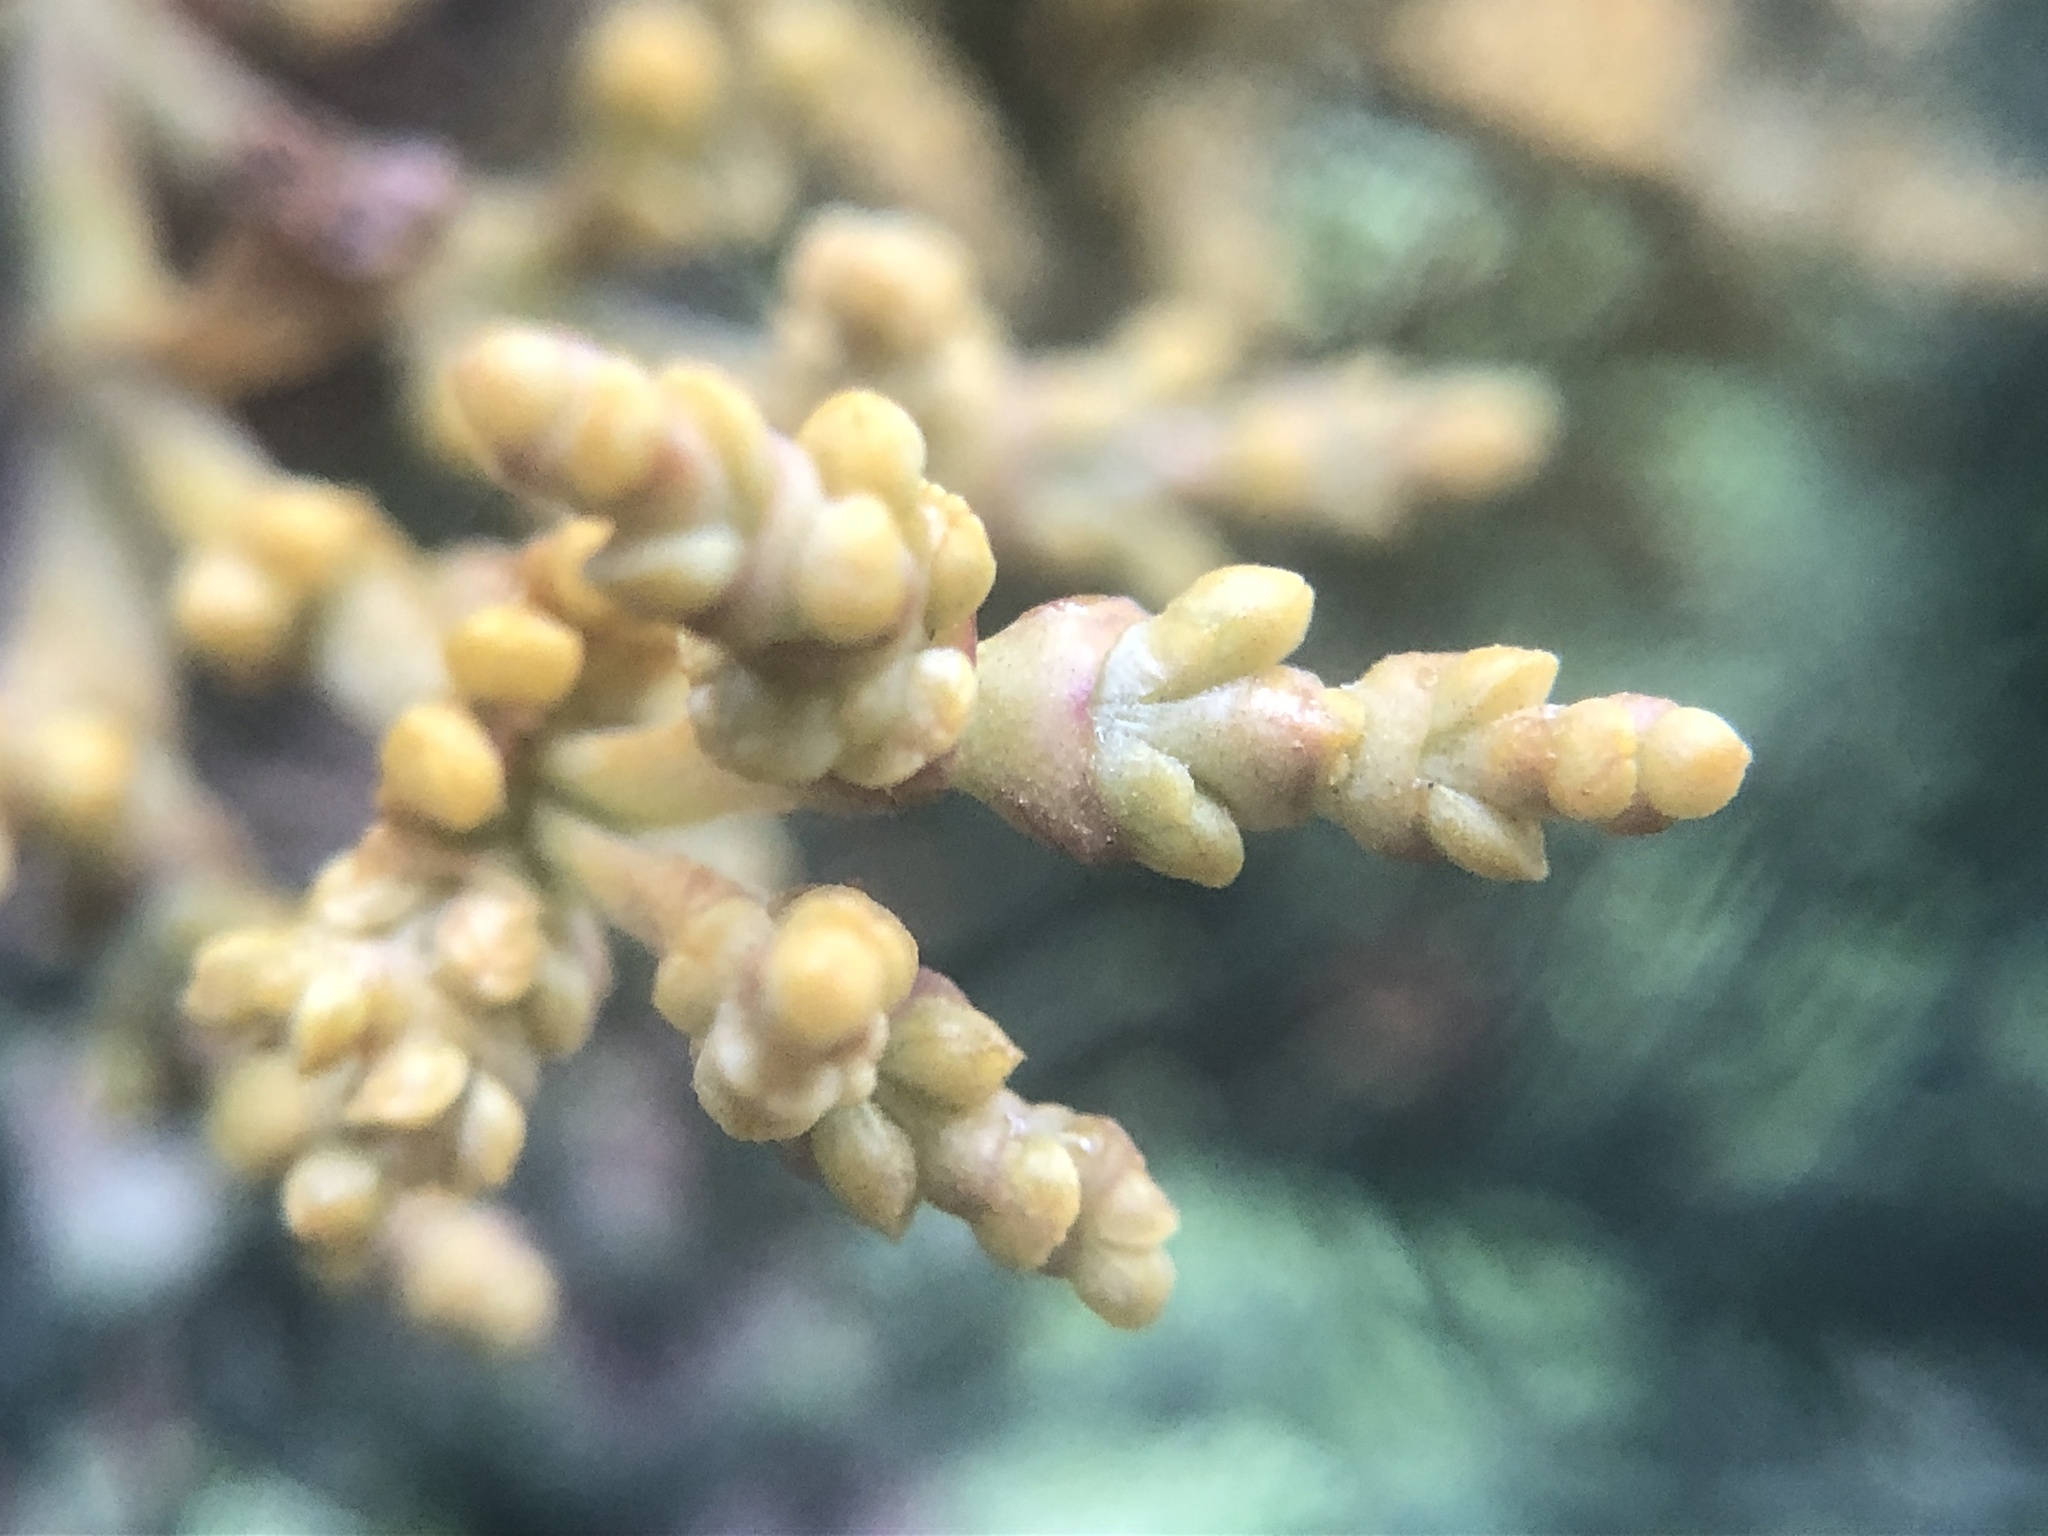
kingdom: Plantae
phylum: Tracheophyta
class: Magnoliopsida
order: Santalales
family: Viscaceae
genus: Arceuthobium
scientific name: Arceuthobium abietinum
